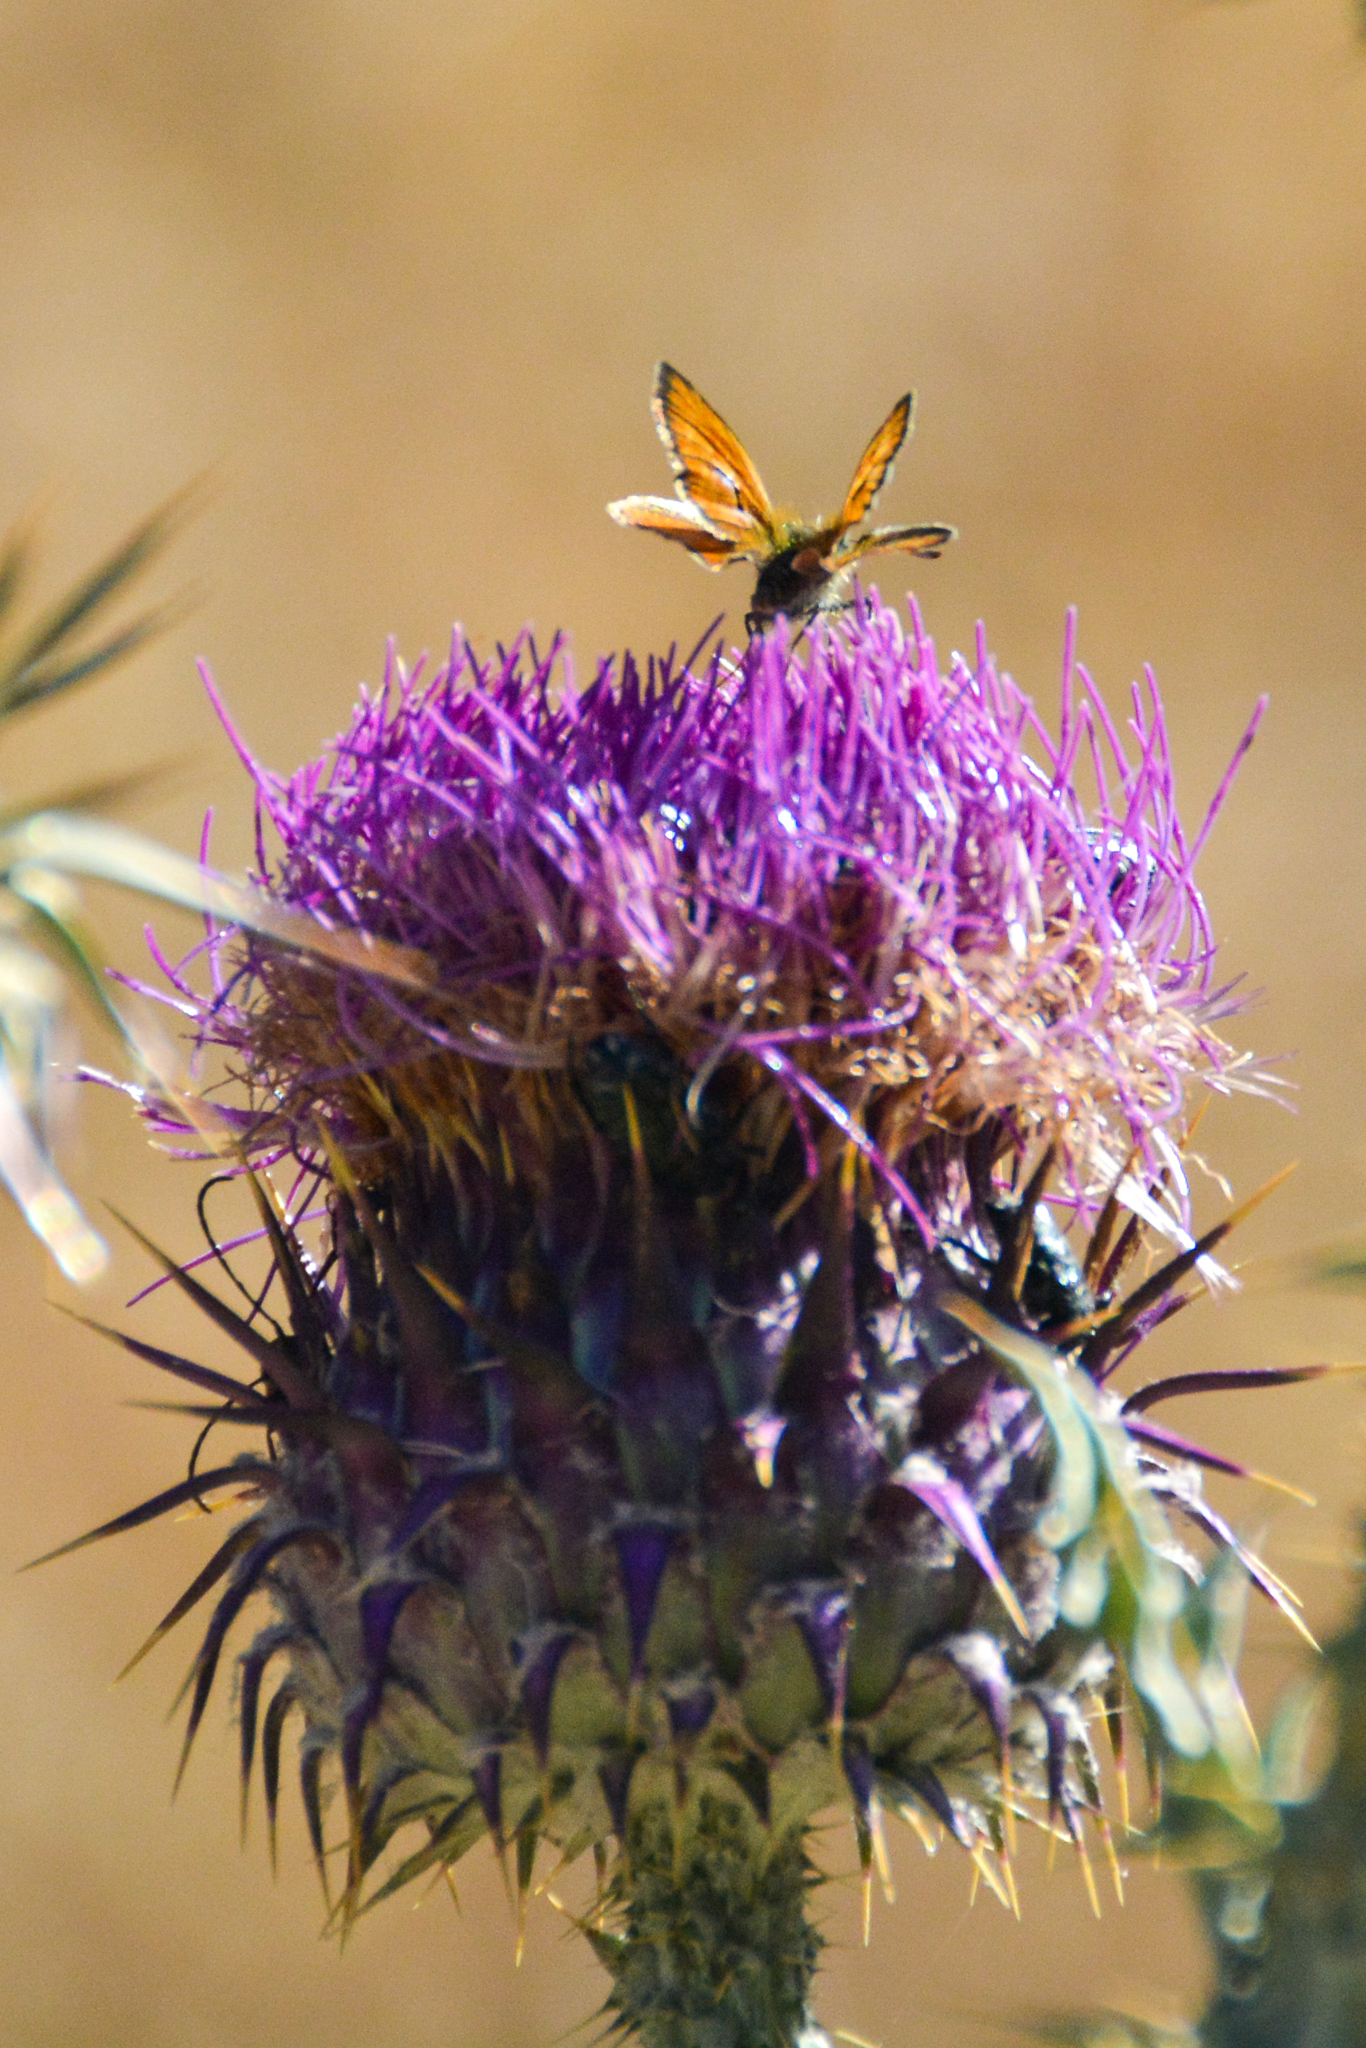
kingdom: Animalia
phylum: Arthropoda
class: Insecta
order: Lepidoptera
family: Hesperiidae
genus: Thymelicus
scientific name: Thymelicus sylvestris
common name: Small skipper
